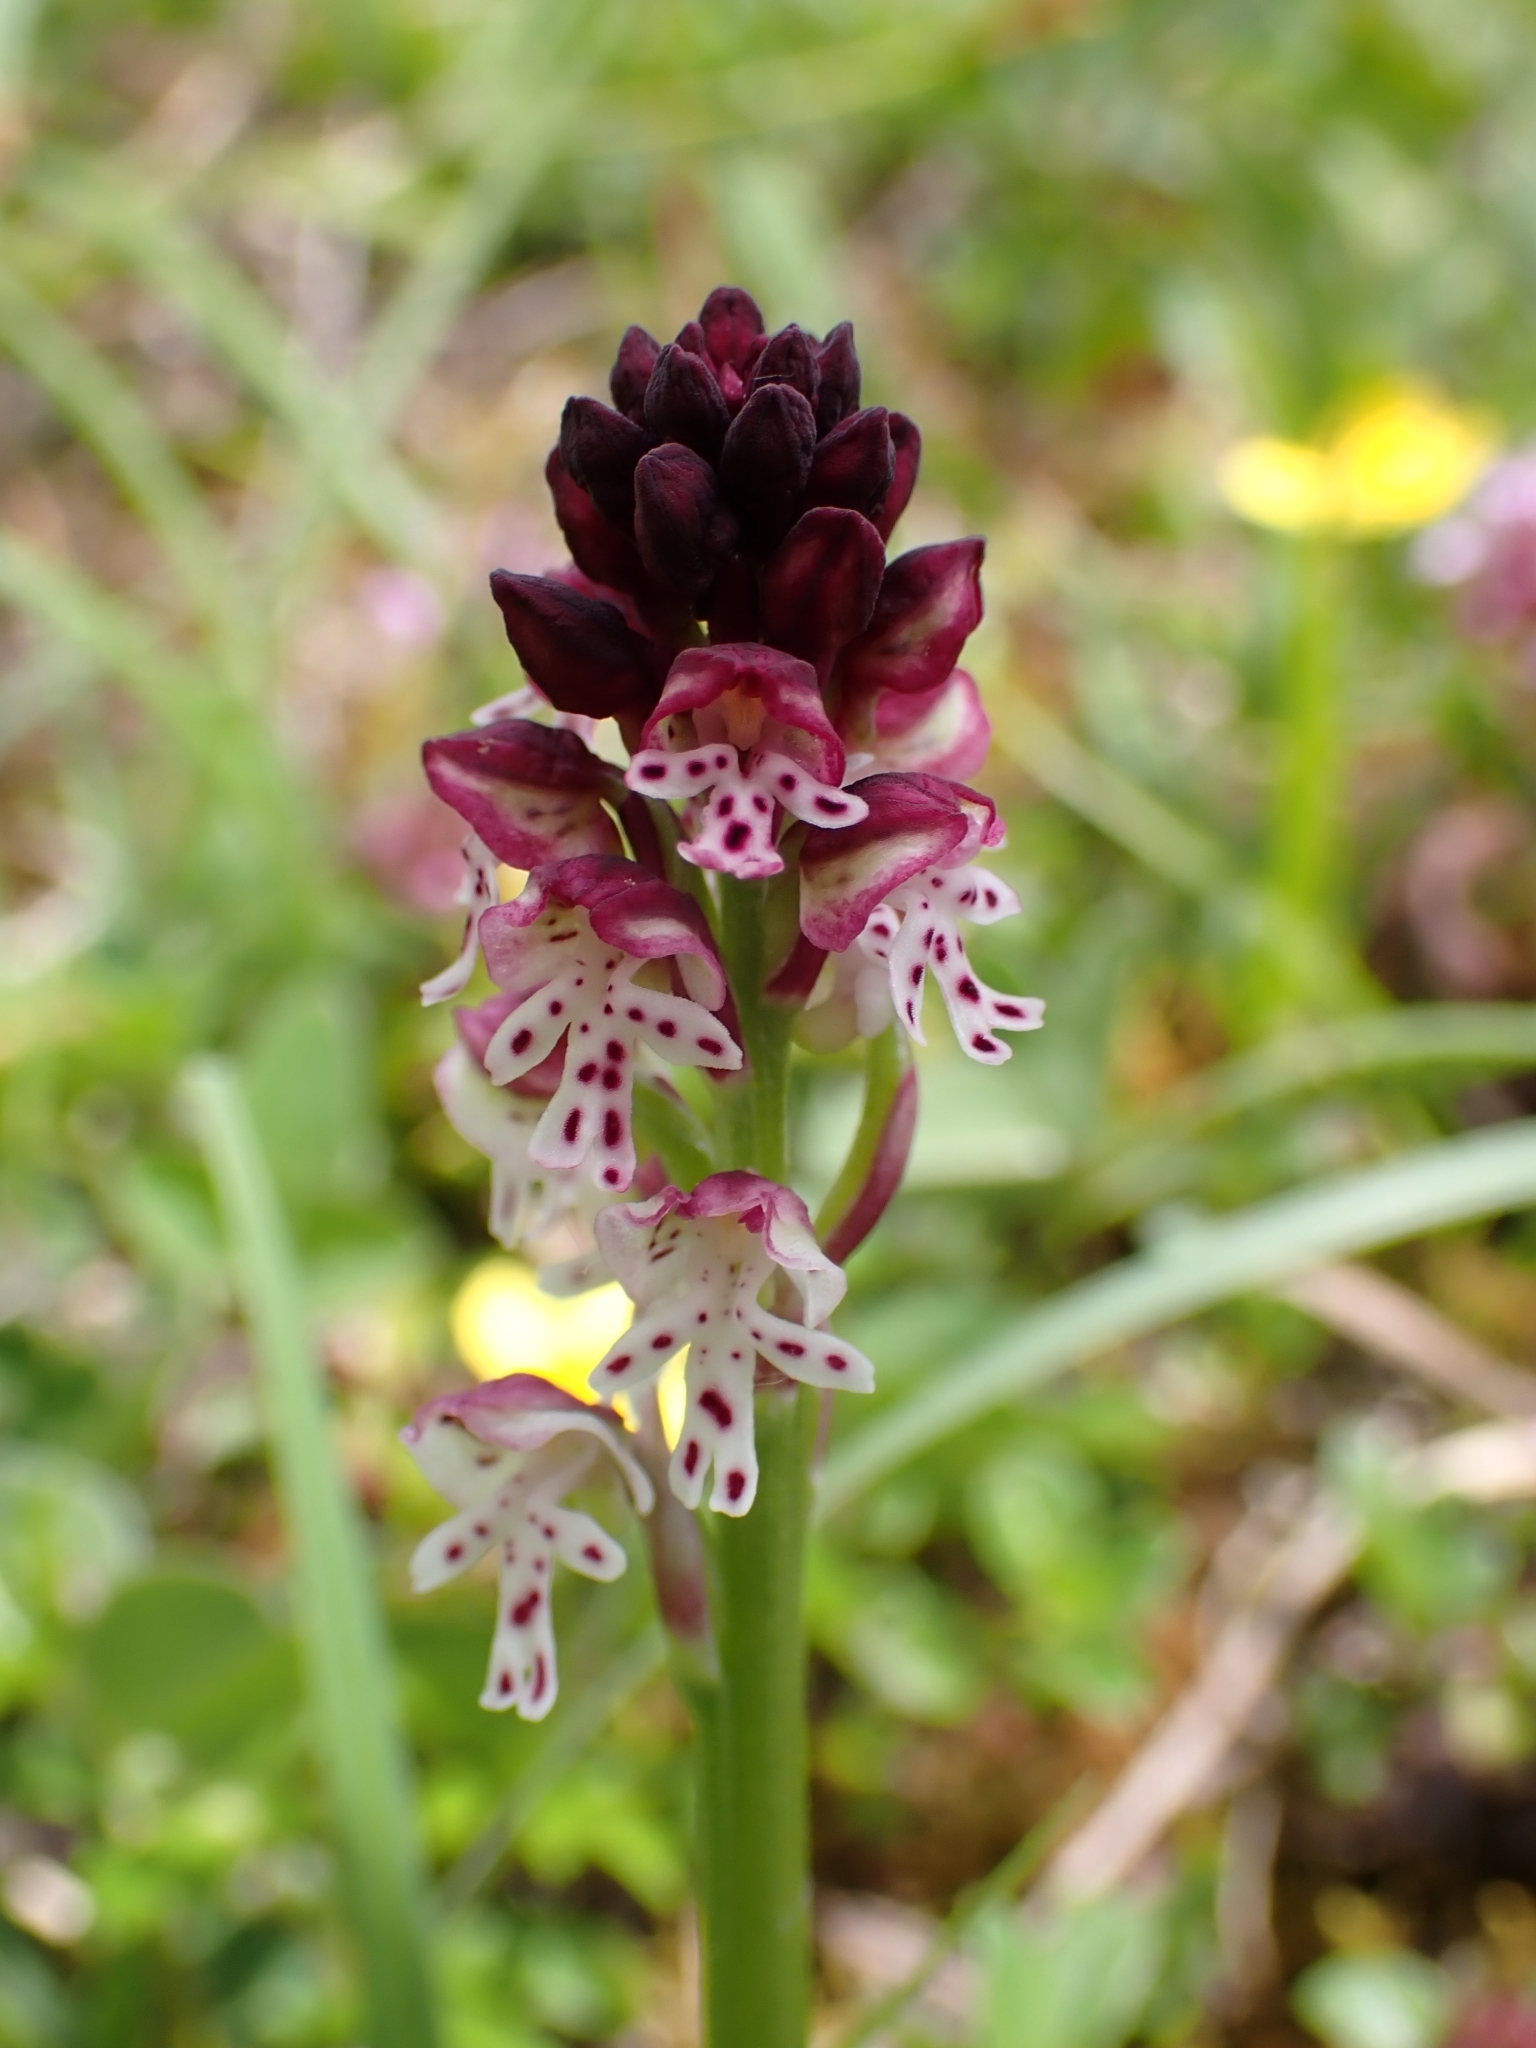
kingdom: Plantae
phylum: Tracheophyta
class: Liliopsida
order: Asparagales
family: Orchidaceae
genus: Neotinea
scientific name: Neotinea ustulata
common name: Burnt orchid
